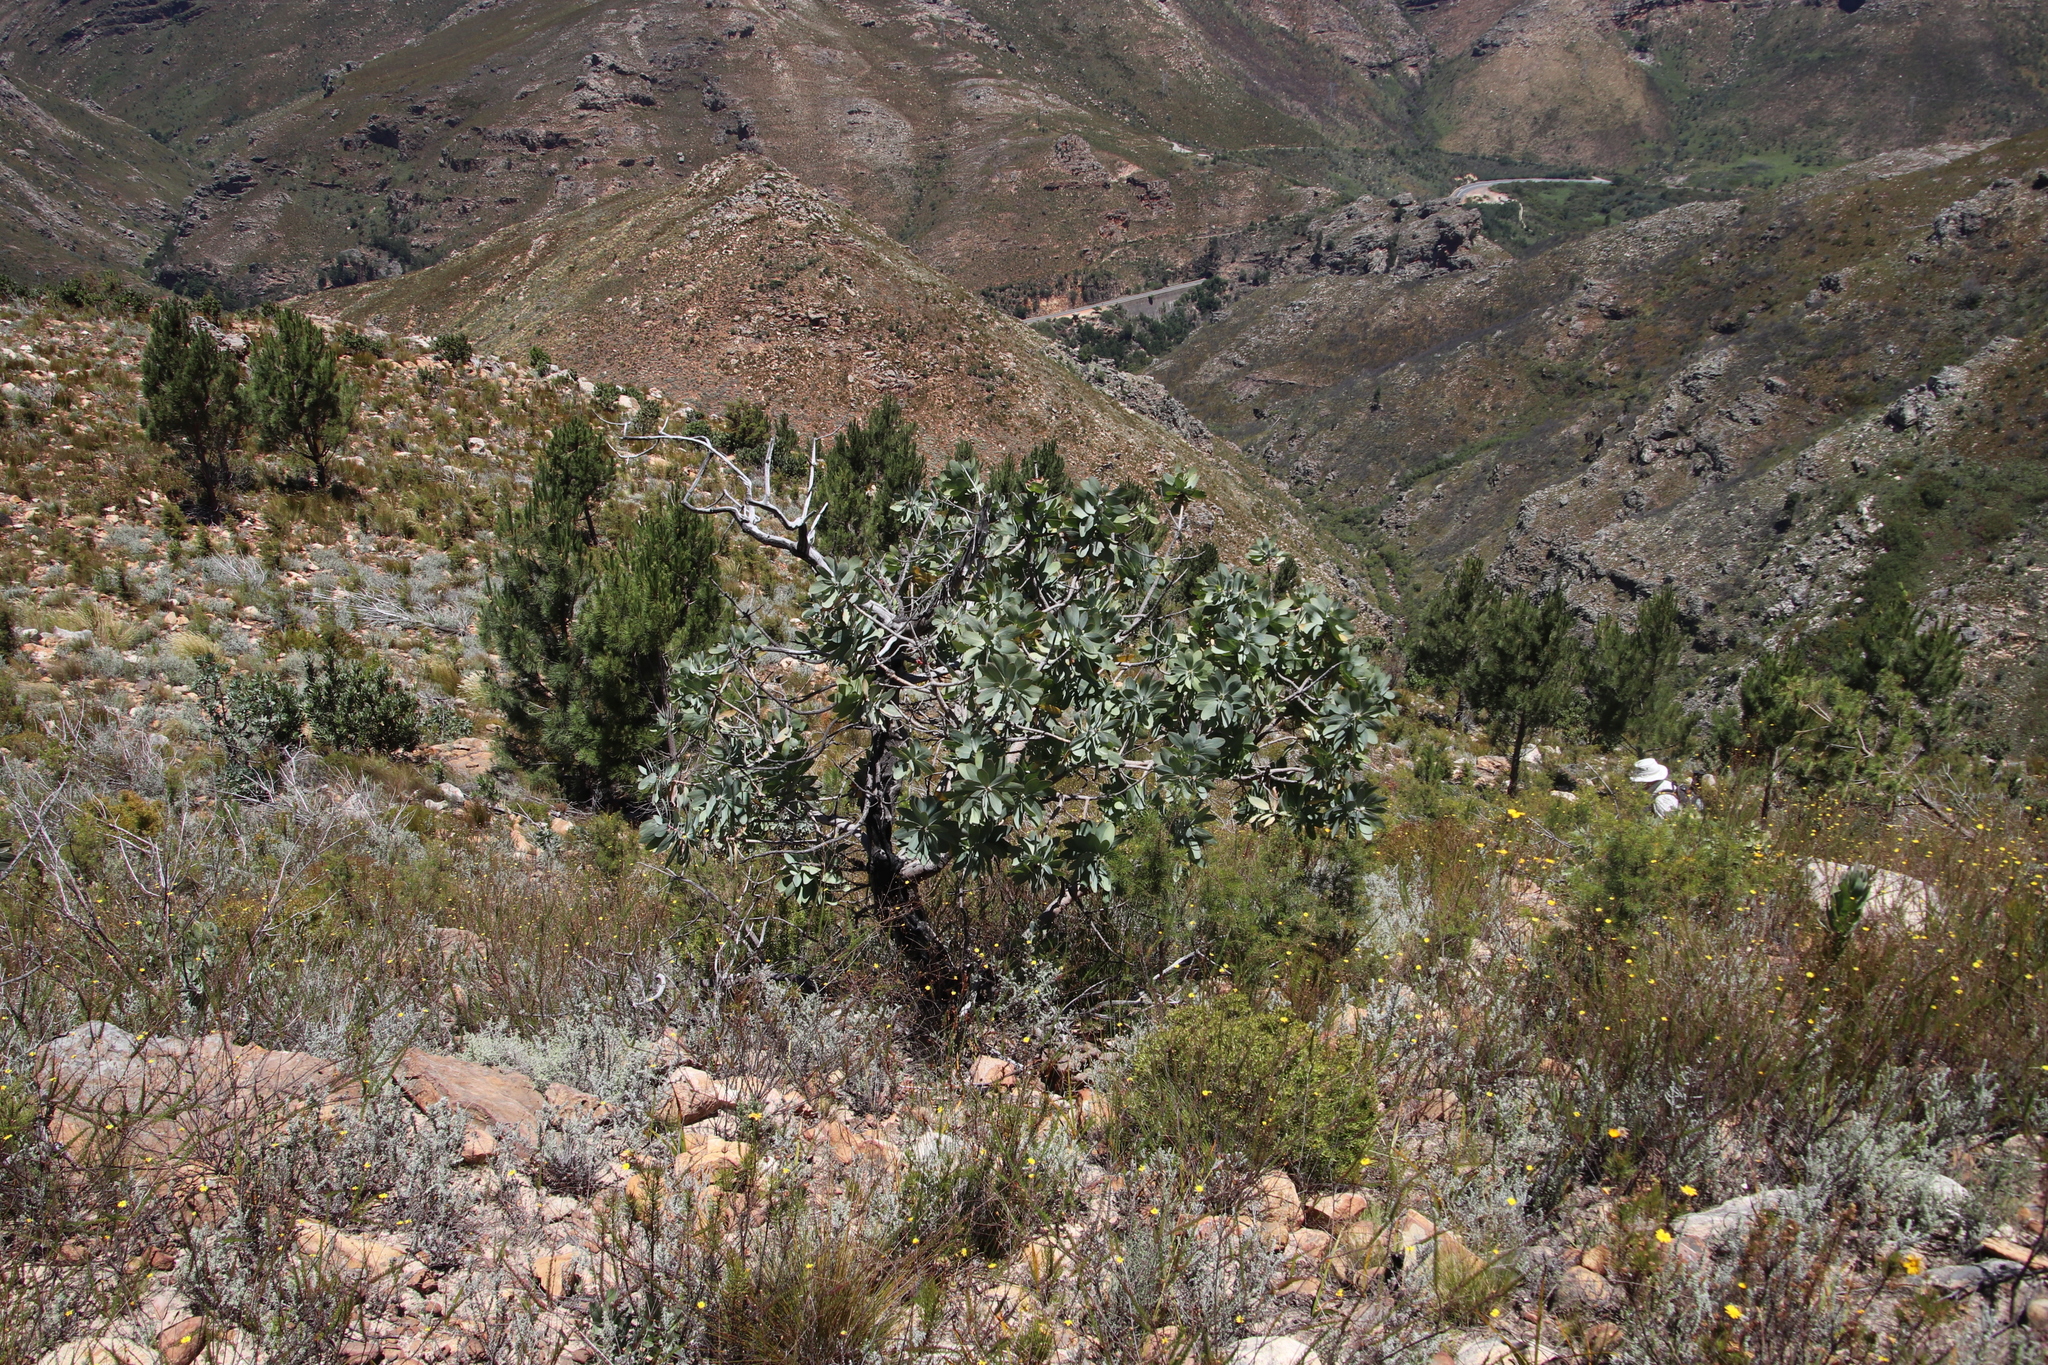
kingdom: Plantae
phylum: Tracheophyta
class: Magnoliopsida
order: Proteales
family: Proteaceae
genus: Protea
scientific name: Protea nitida
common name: Tree protea
